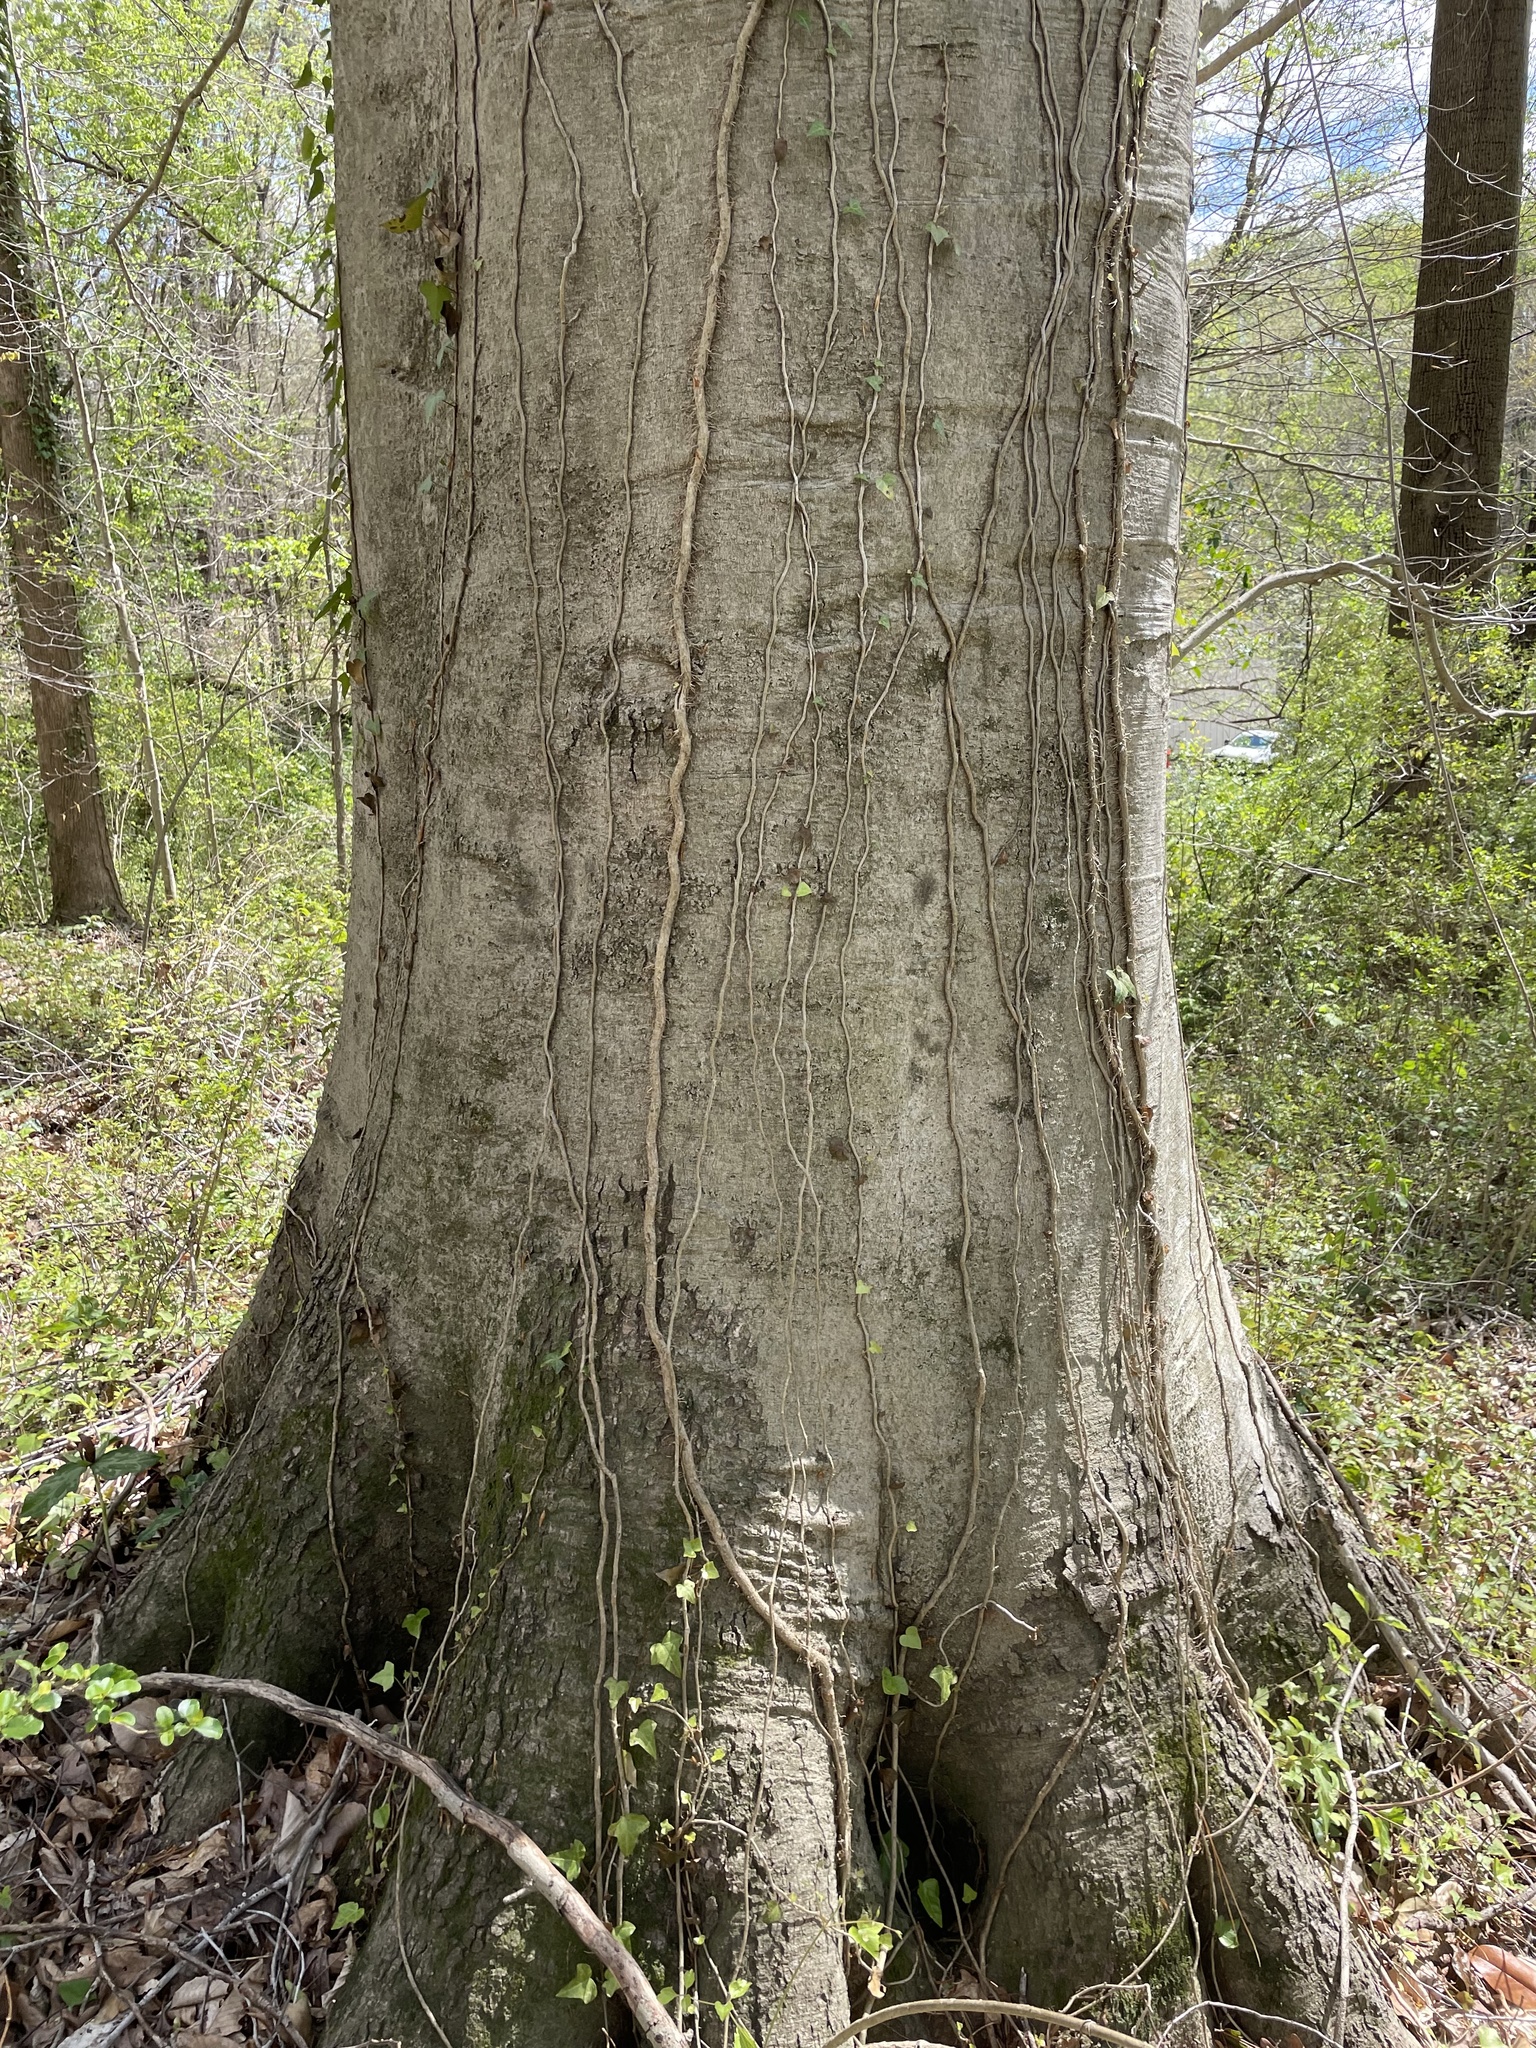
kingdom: Plantae
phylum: Tracheophyta
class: Magnoliopsida
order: Fagales
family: Fagaceae
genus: Fagus
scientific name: Fagus grandifolia
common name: American beech
